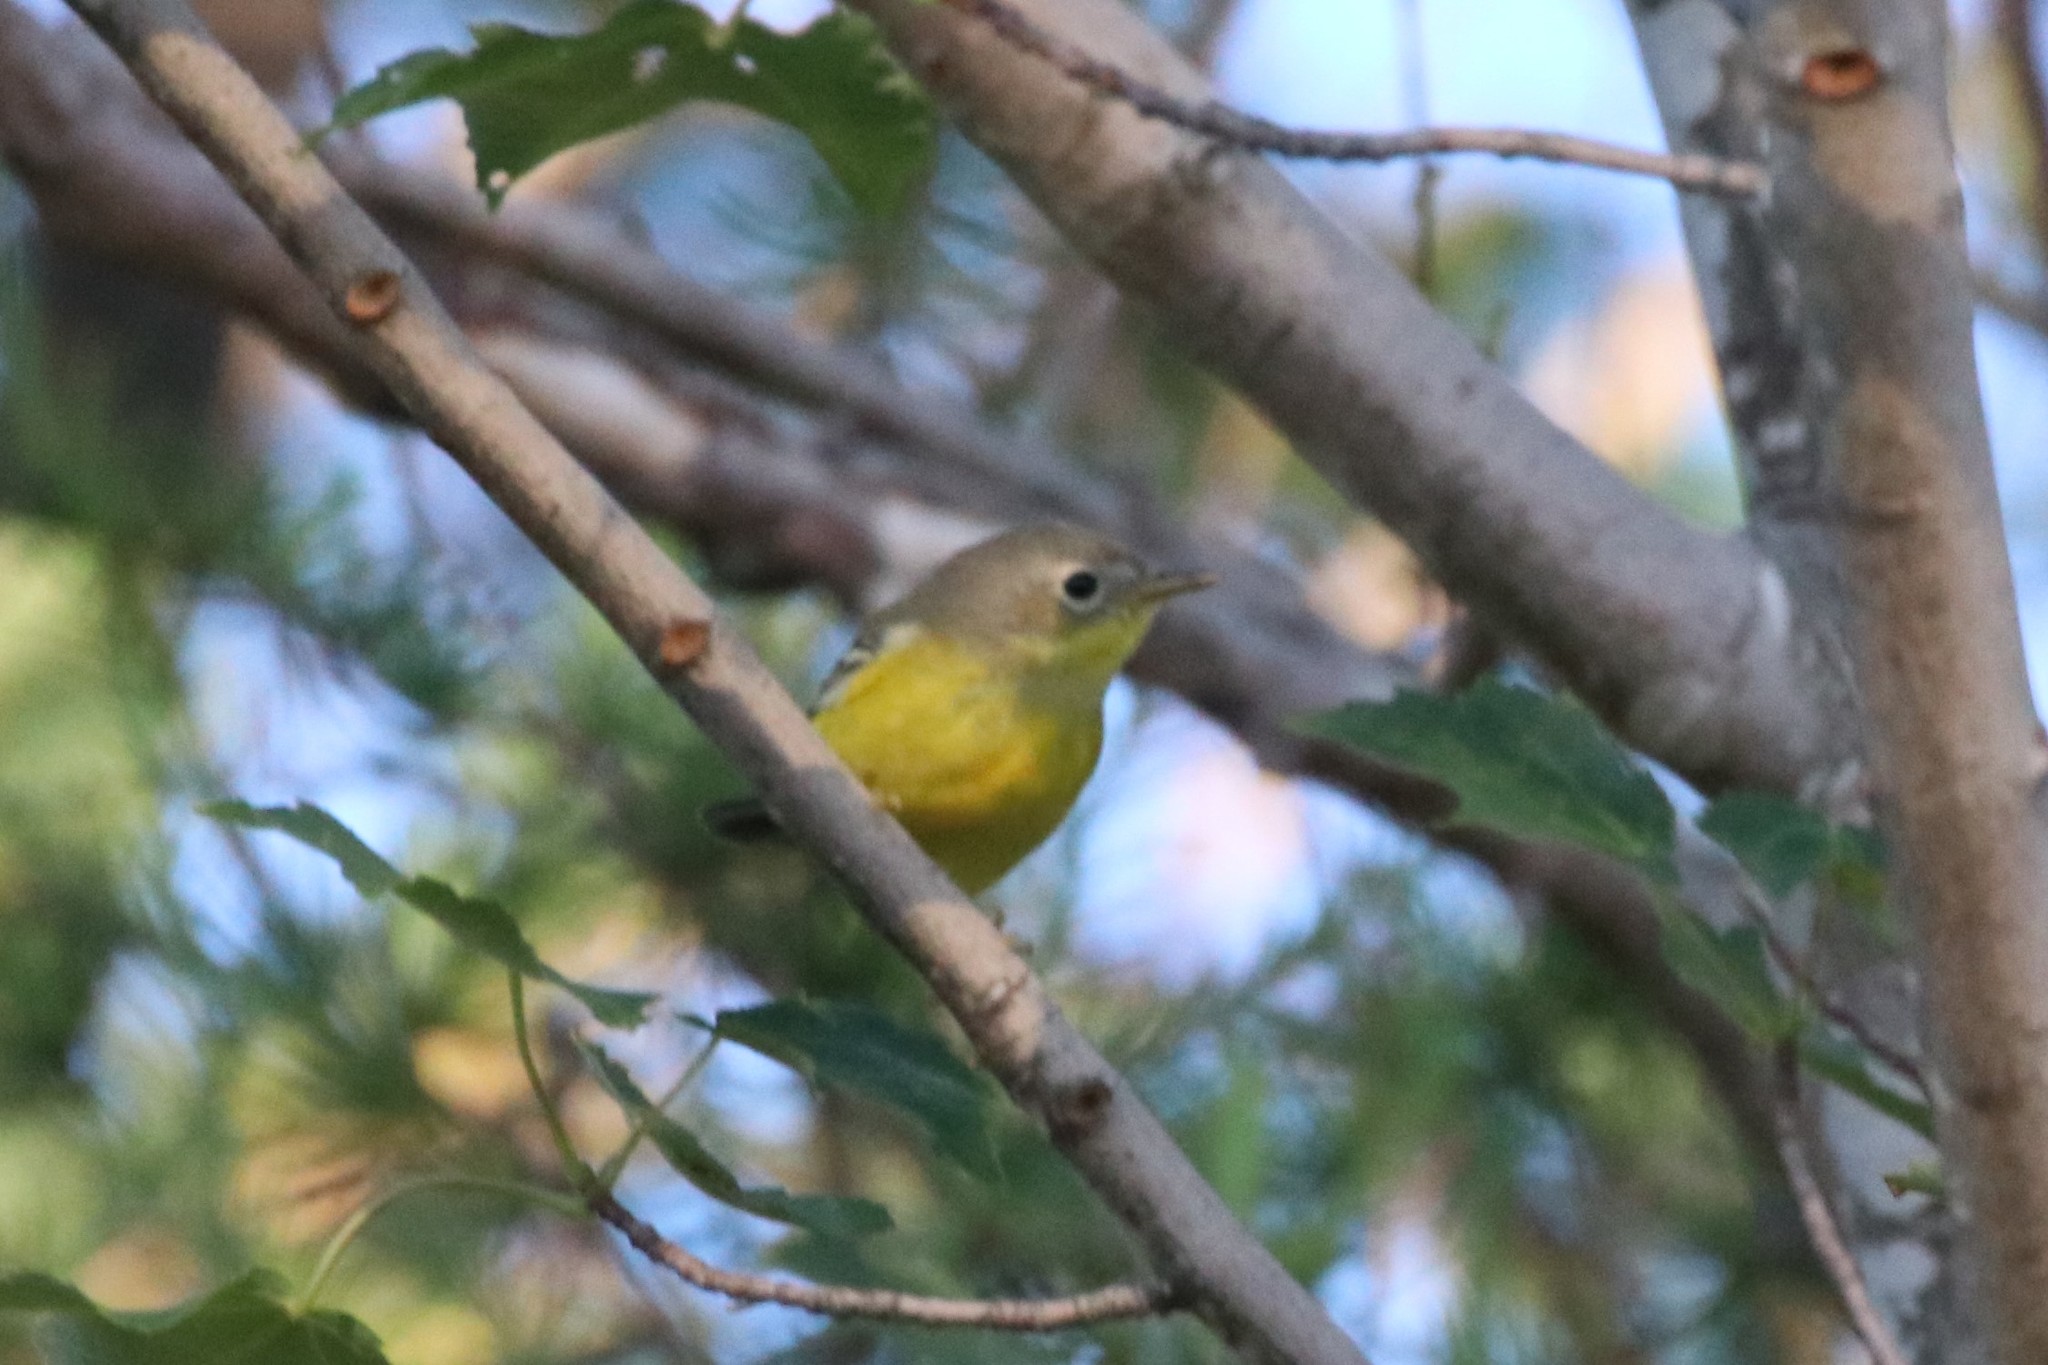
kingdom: Animalia
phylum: Chordata
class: Aves
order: Passeriformes
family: Parulidae
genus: Setophaga
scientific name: Setophaga magnolia
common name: Magnolia warbler
